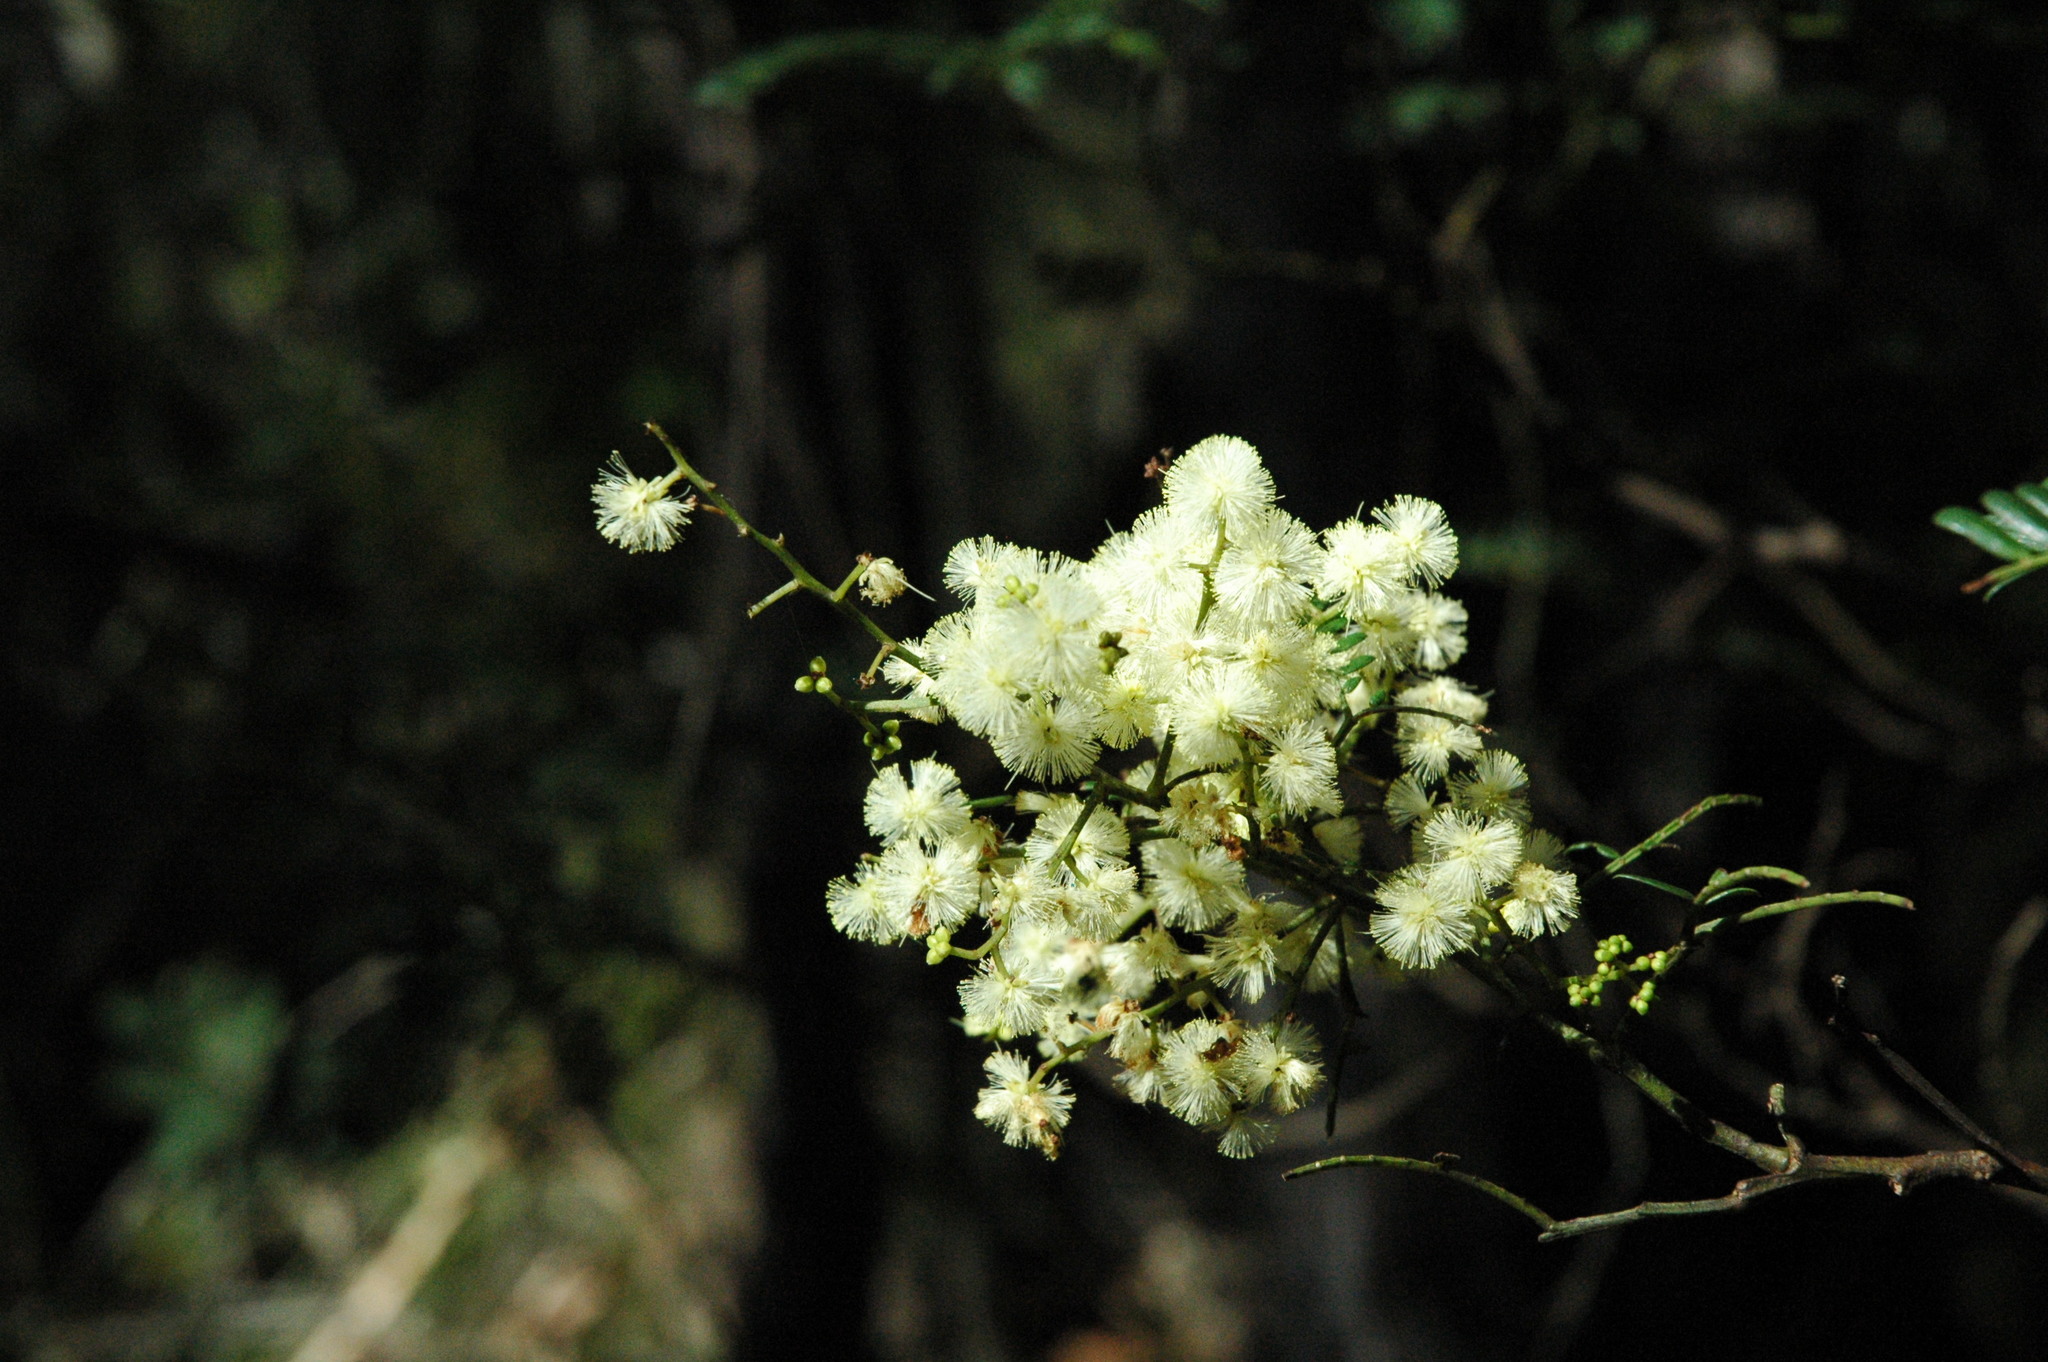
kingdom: Plantae
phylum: Tracheophyta
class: Magnoliopsida
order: Fabales
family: Fabaceae
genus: Acacia
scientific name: Acacia terminalis
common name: Cedar wattle
